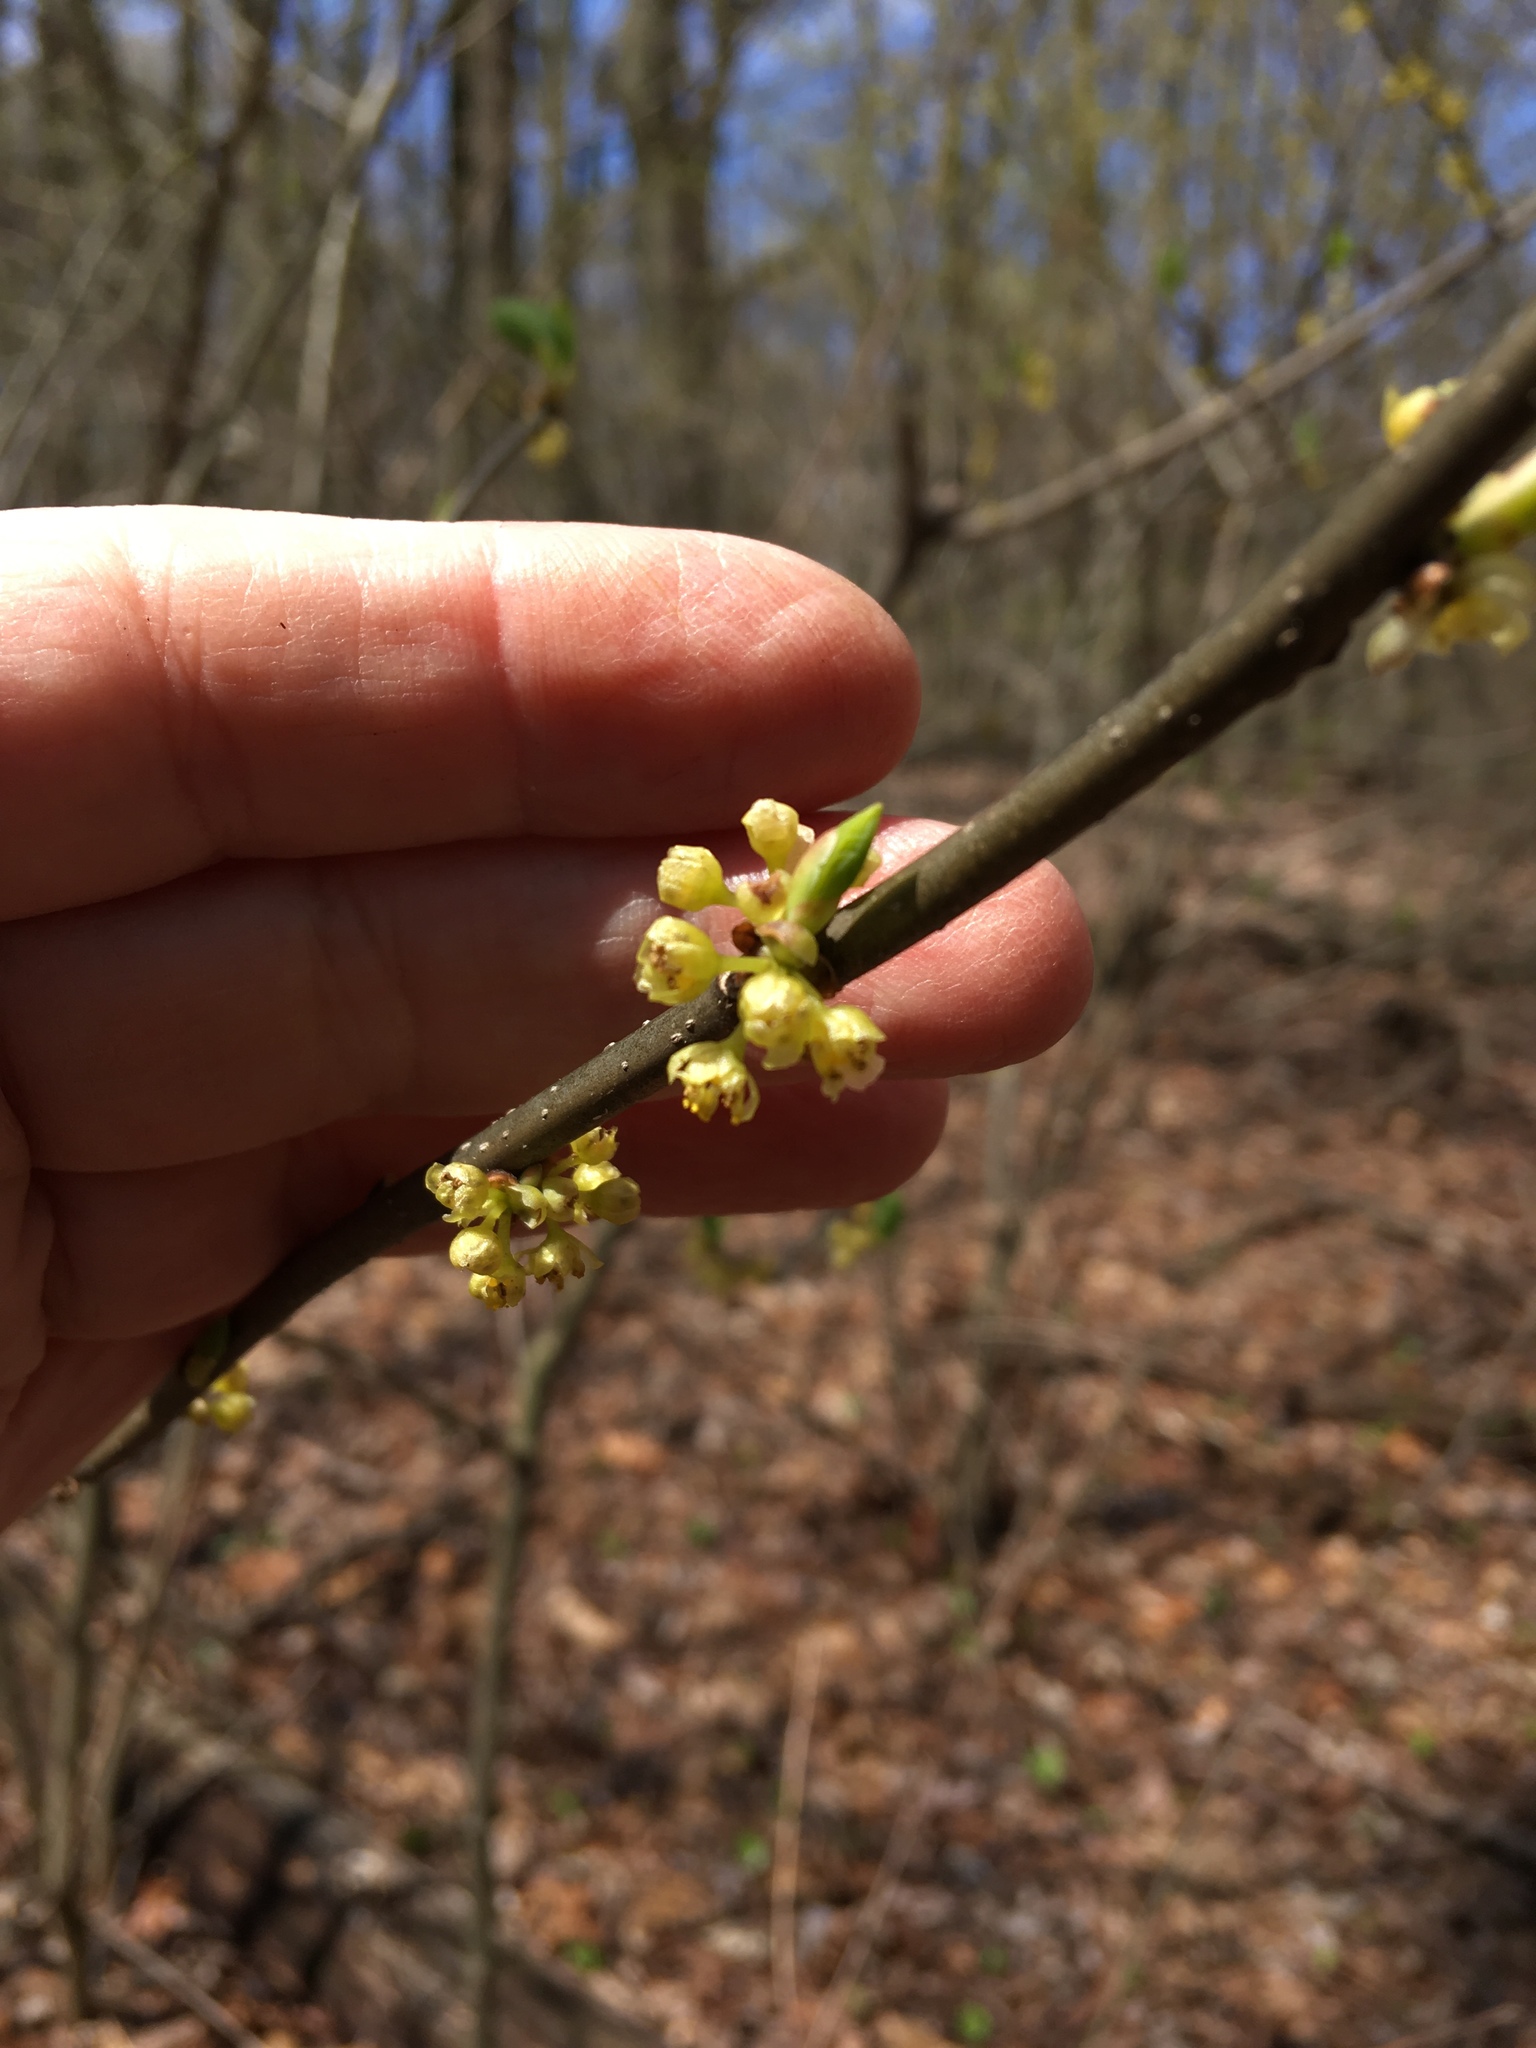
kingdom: Plantae
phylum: Tracheophyta
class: Magnoliopsida
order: Laurales
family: Lauraceae
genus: Lindera
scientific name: Lindera benzoin
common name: Spicebush
